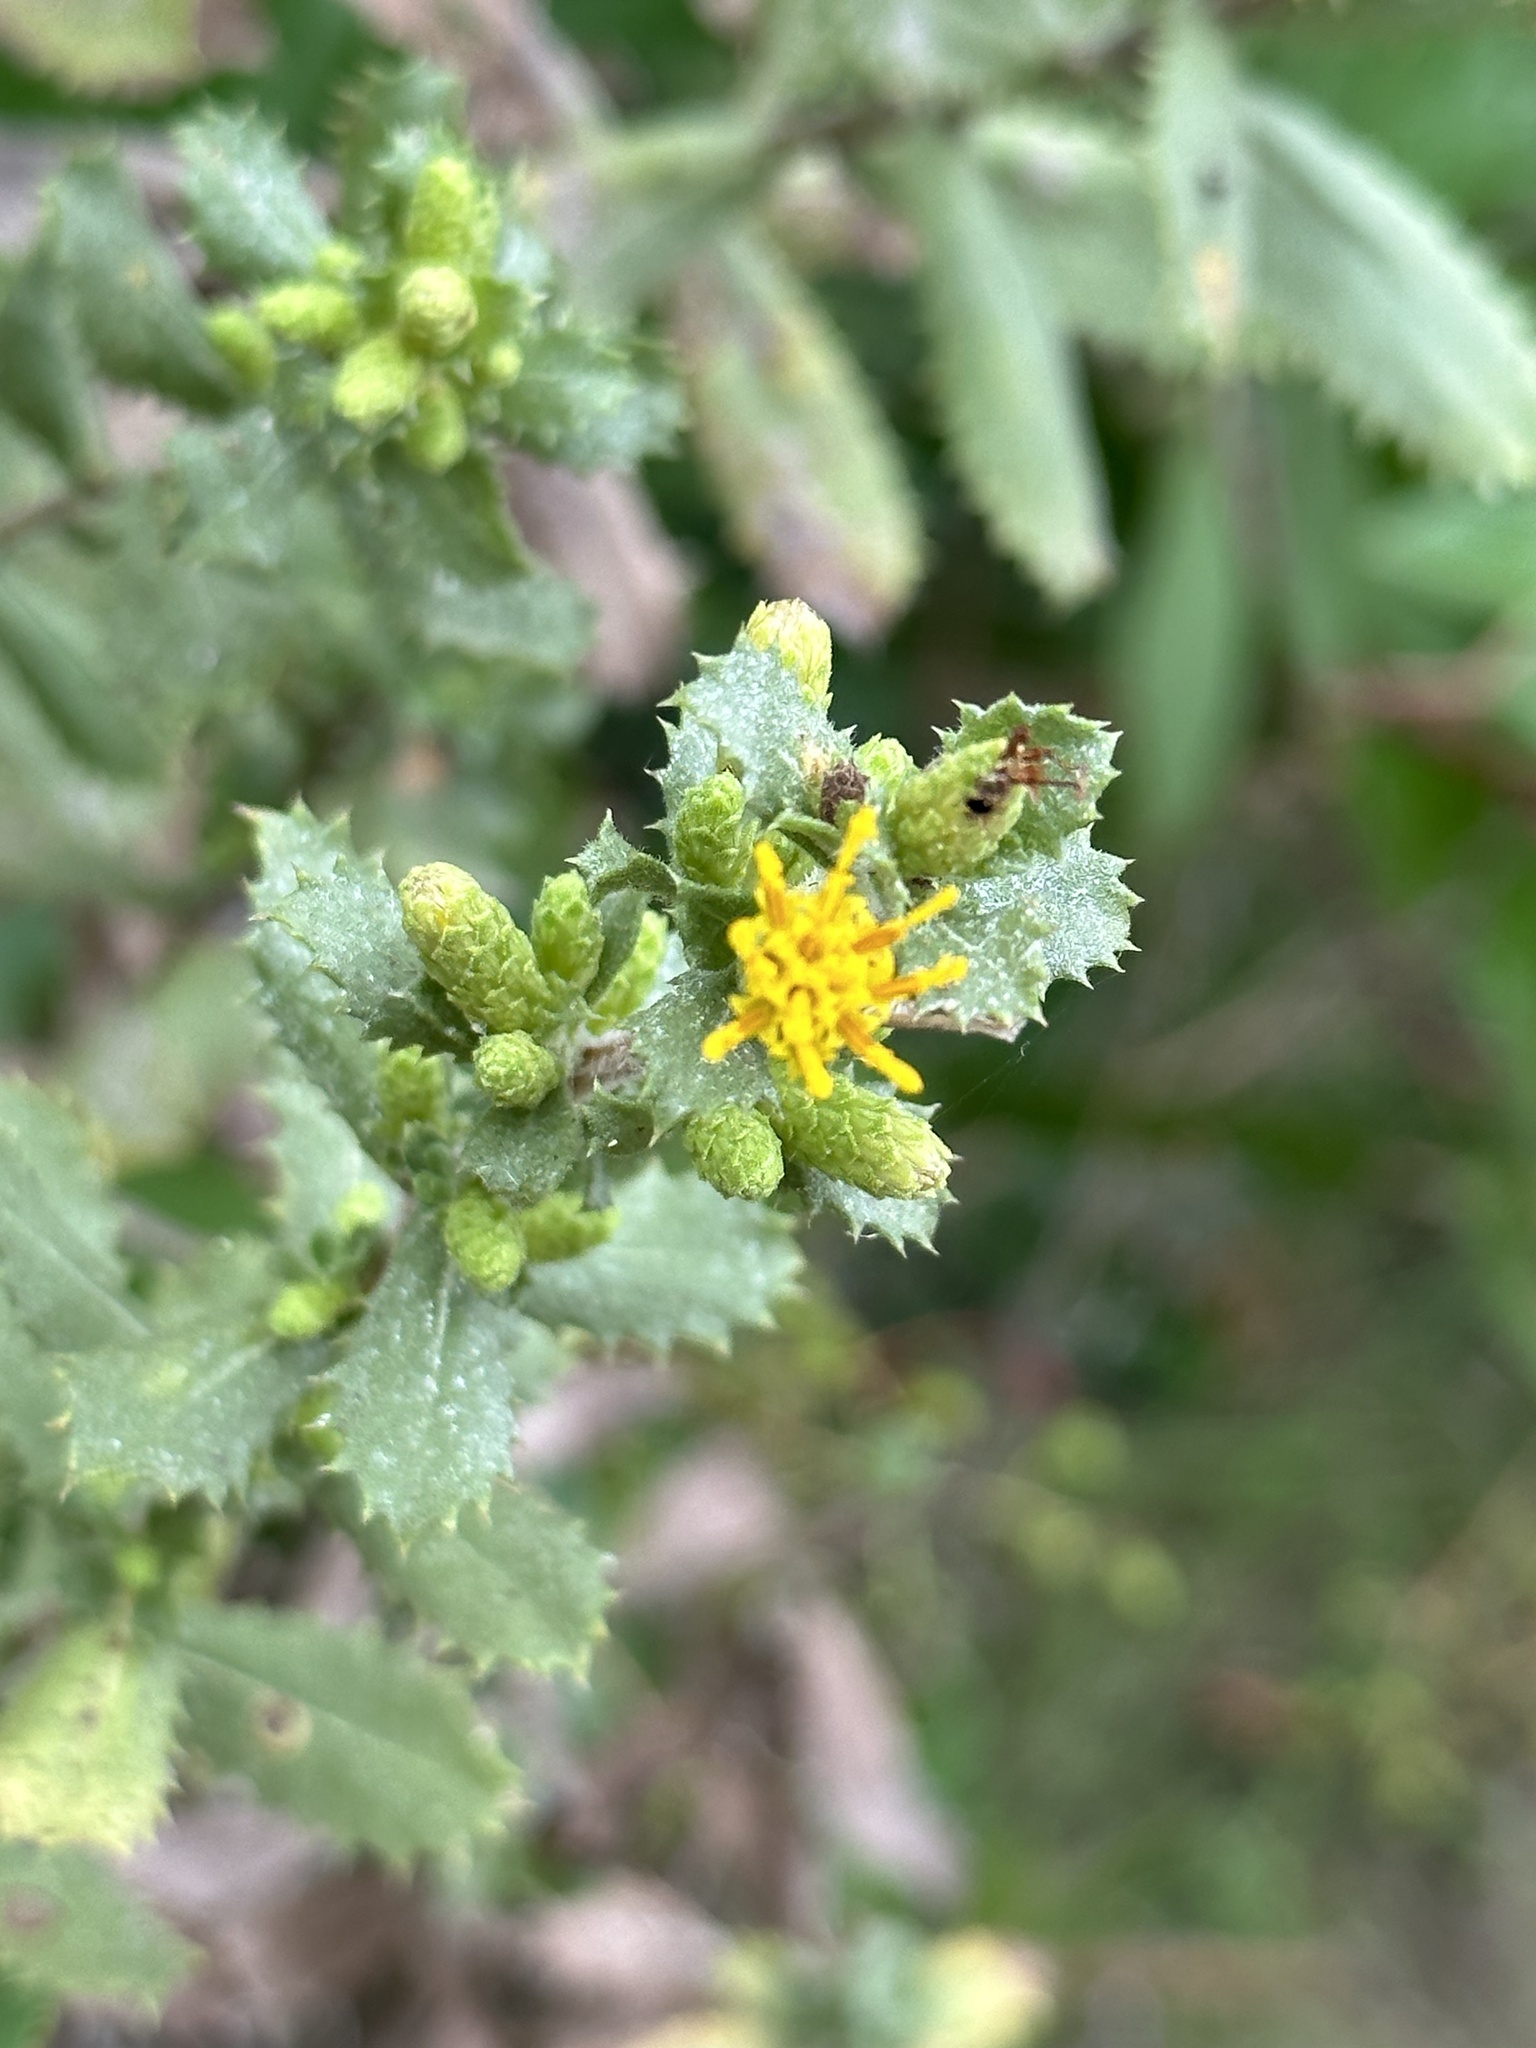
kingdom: Plantae
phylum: Tracheophyta
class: Magnoliopsida
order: Asterales
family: Asteraceae
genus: Hazardia
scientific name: Hazardia squarrosa
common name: Saw-tooth goldenbush
